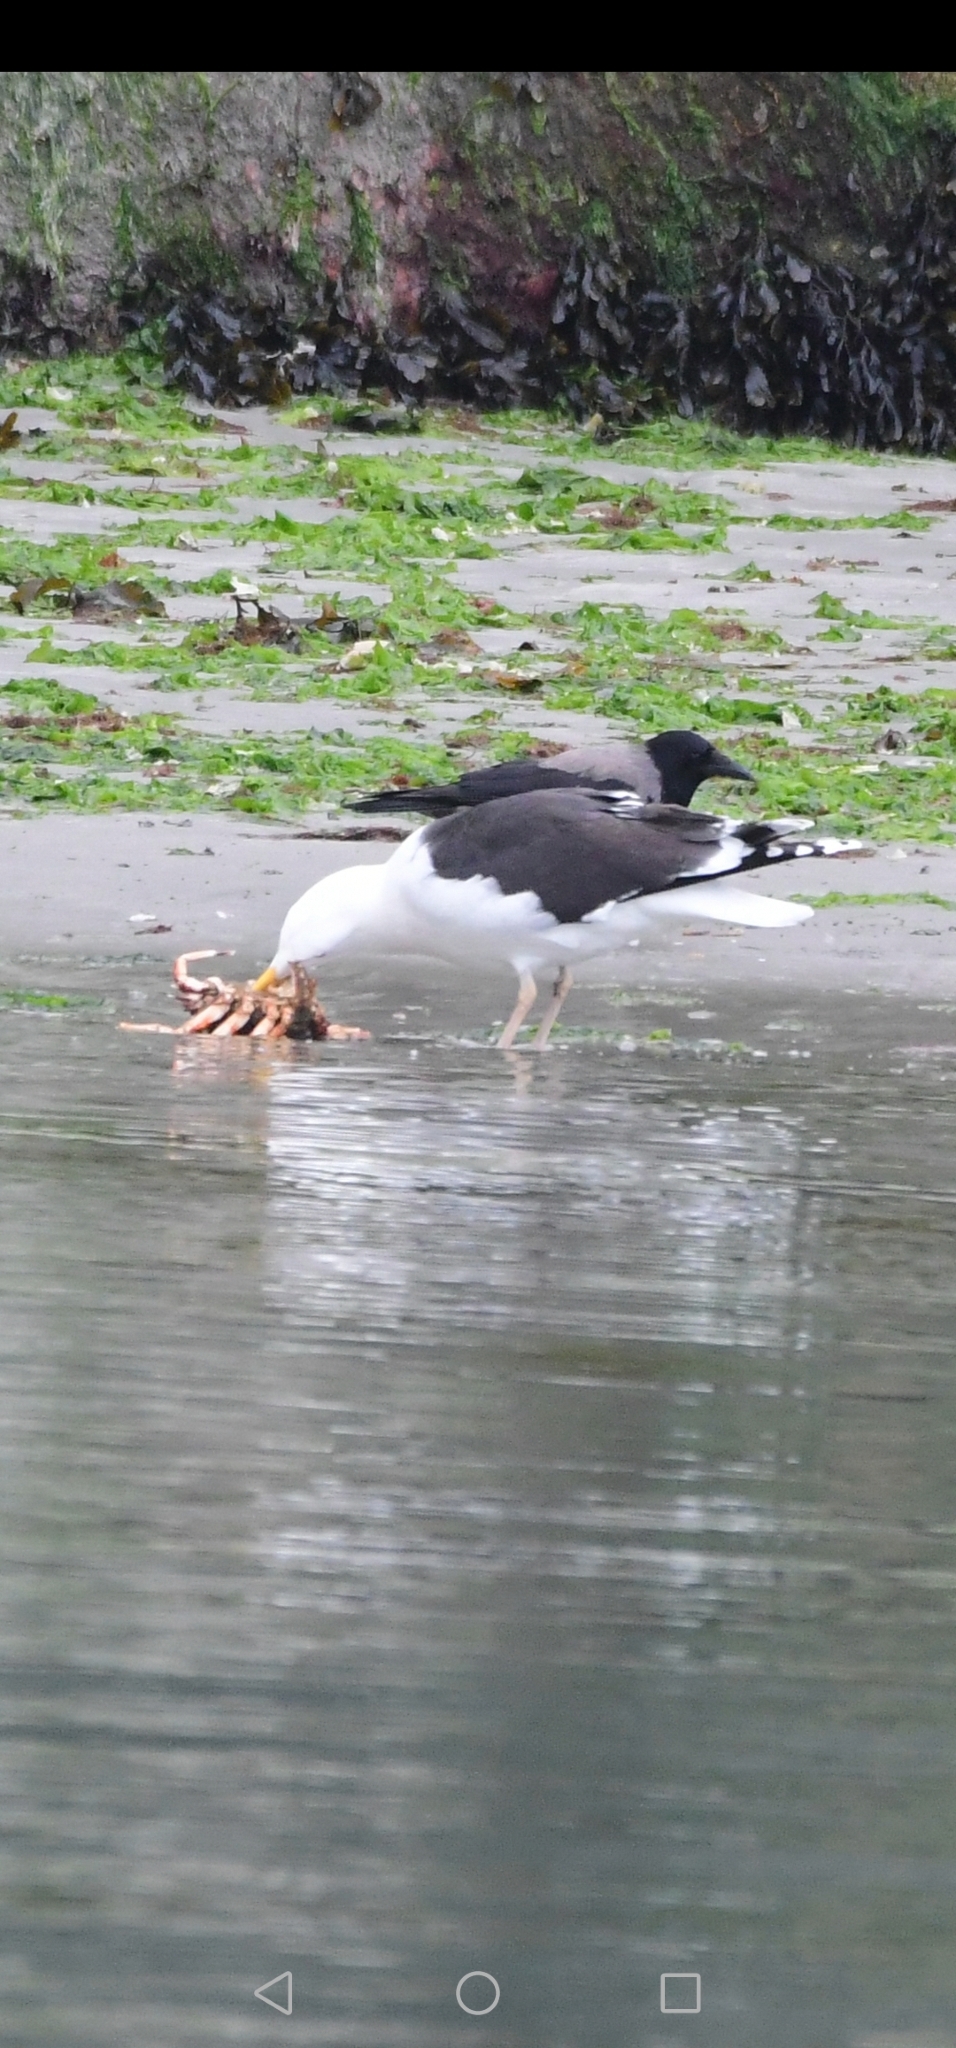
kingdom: Animalia
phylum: Chordata
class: Aves
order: Charadriiformes
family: Laridae
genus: Larus
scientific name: Larus marinus
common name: Great black-backed gull
